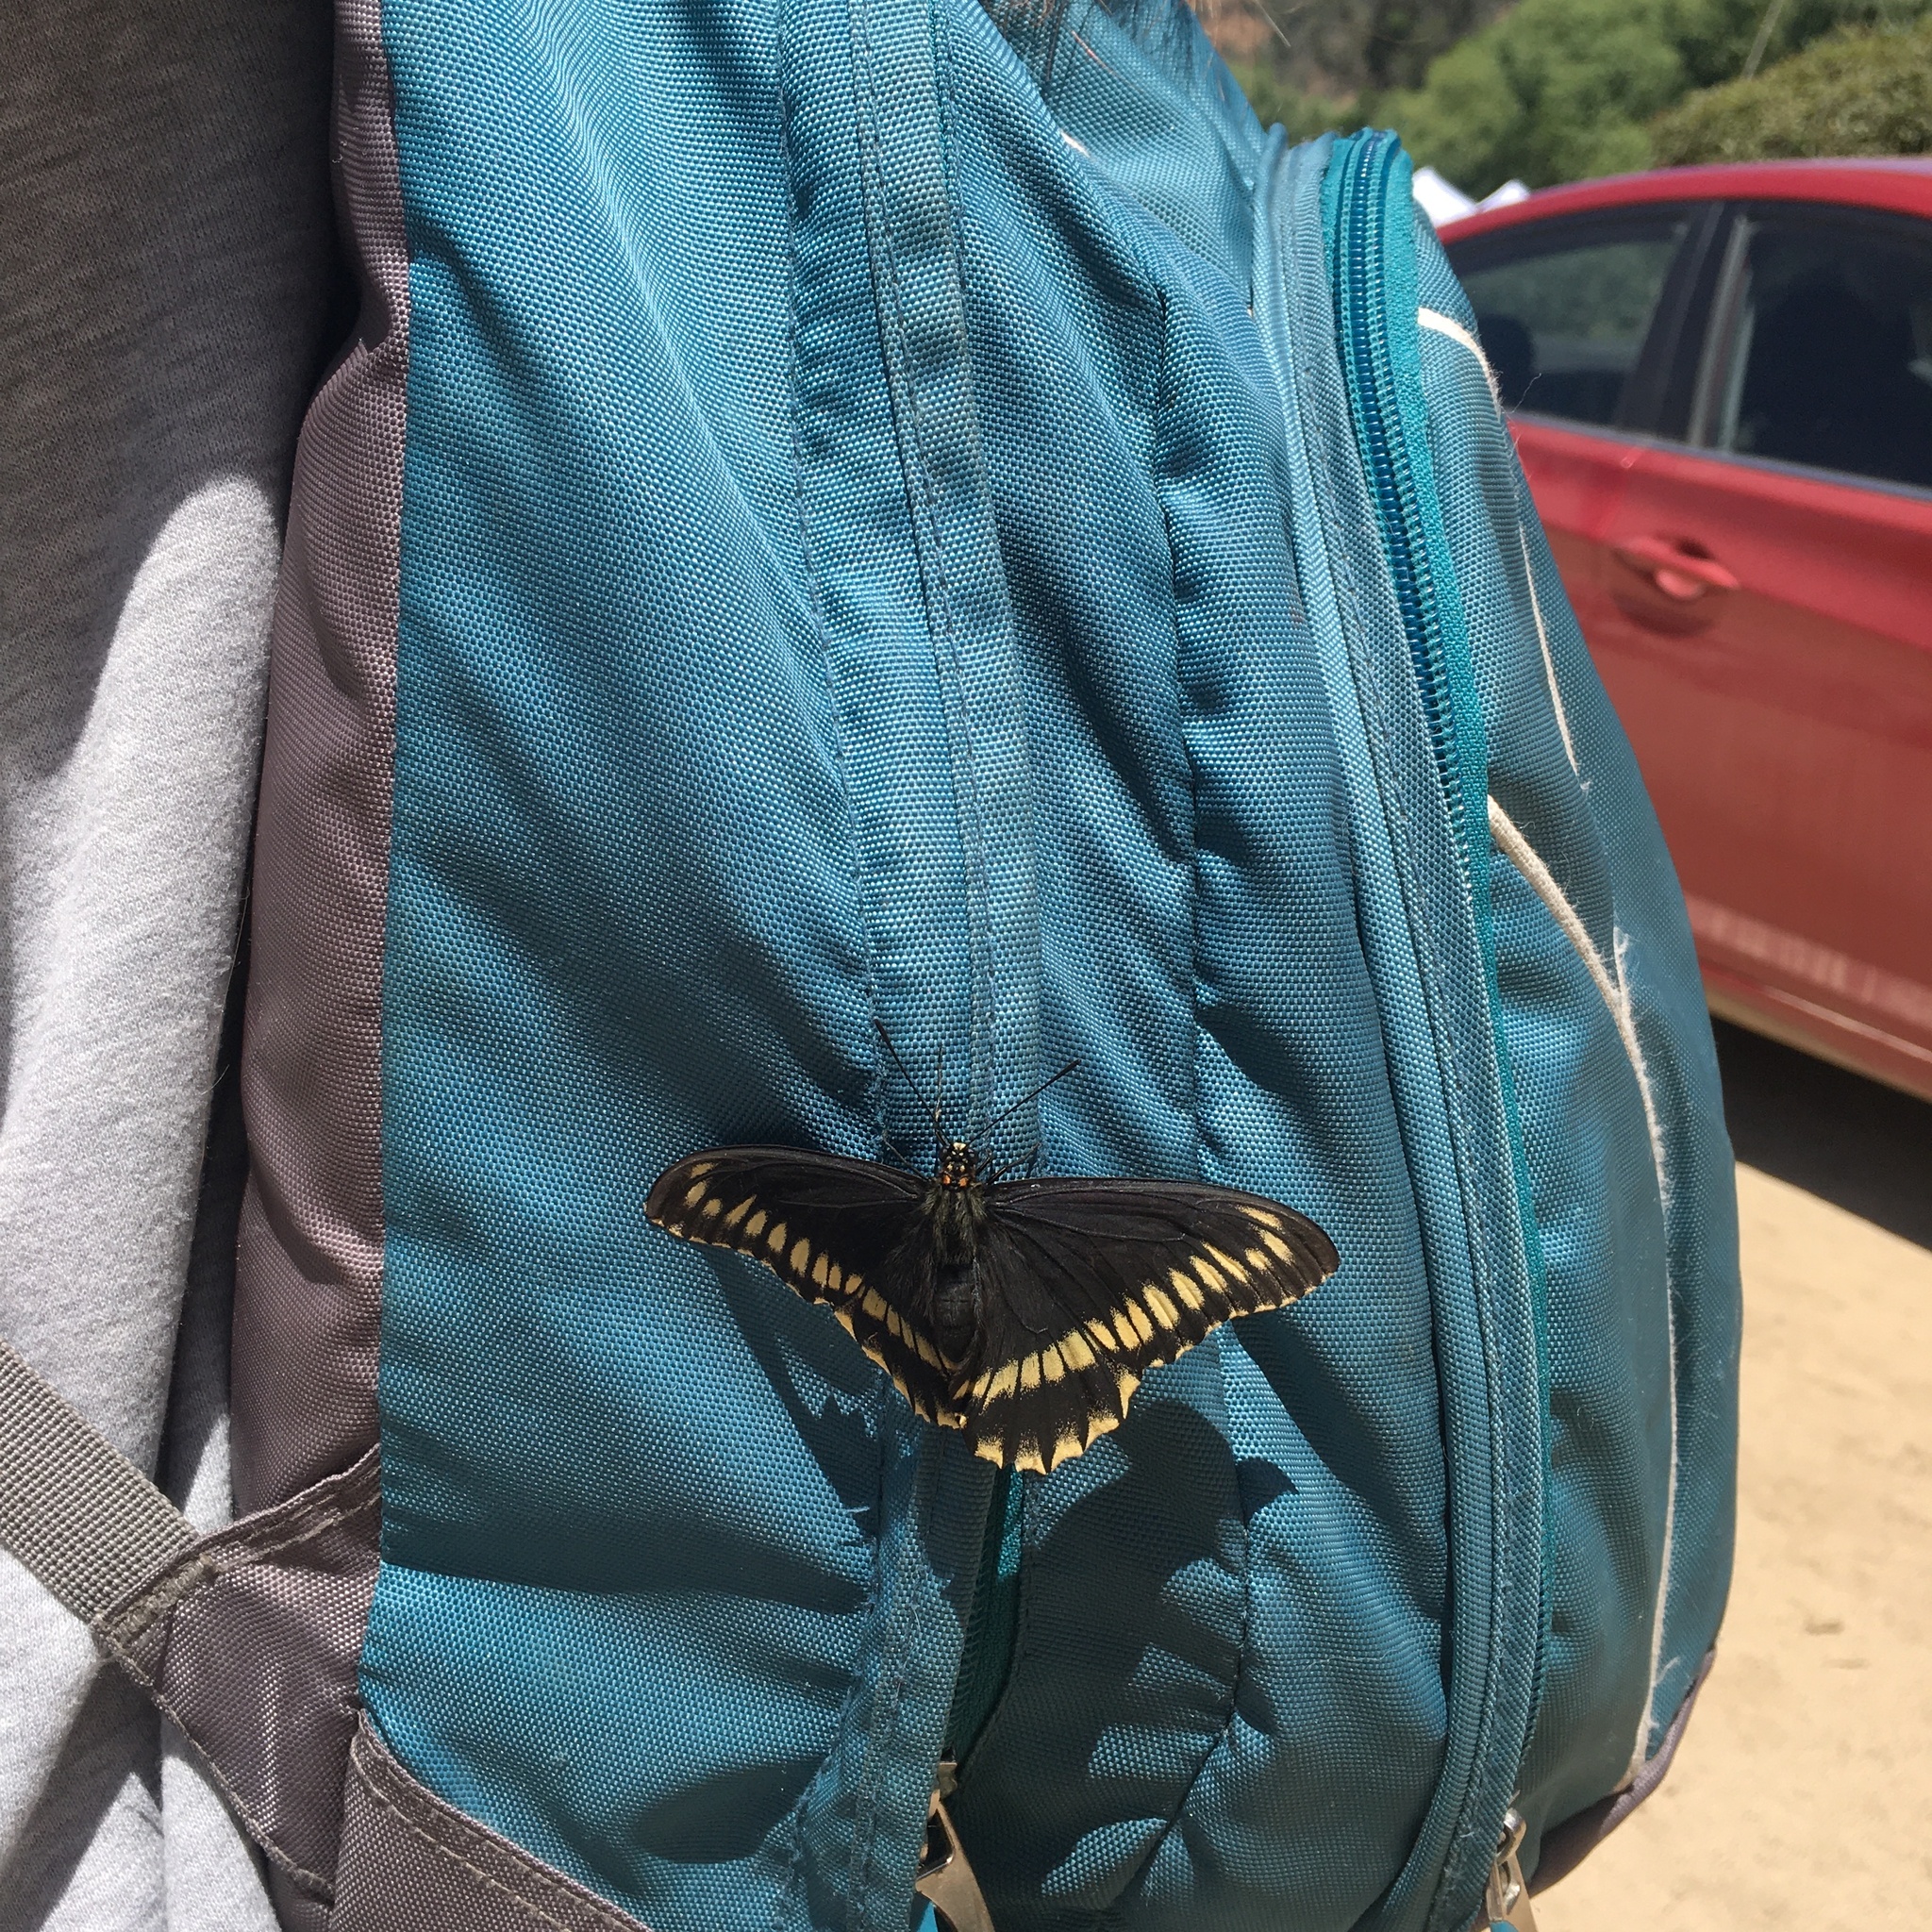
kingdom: Animalia
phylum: Arthropoda
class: Insecta
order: Lepidoptera
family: Papilionidae
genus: Battus
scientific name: Battus polydamas
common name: Polydamas swallowtail
